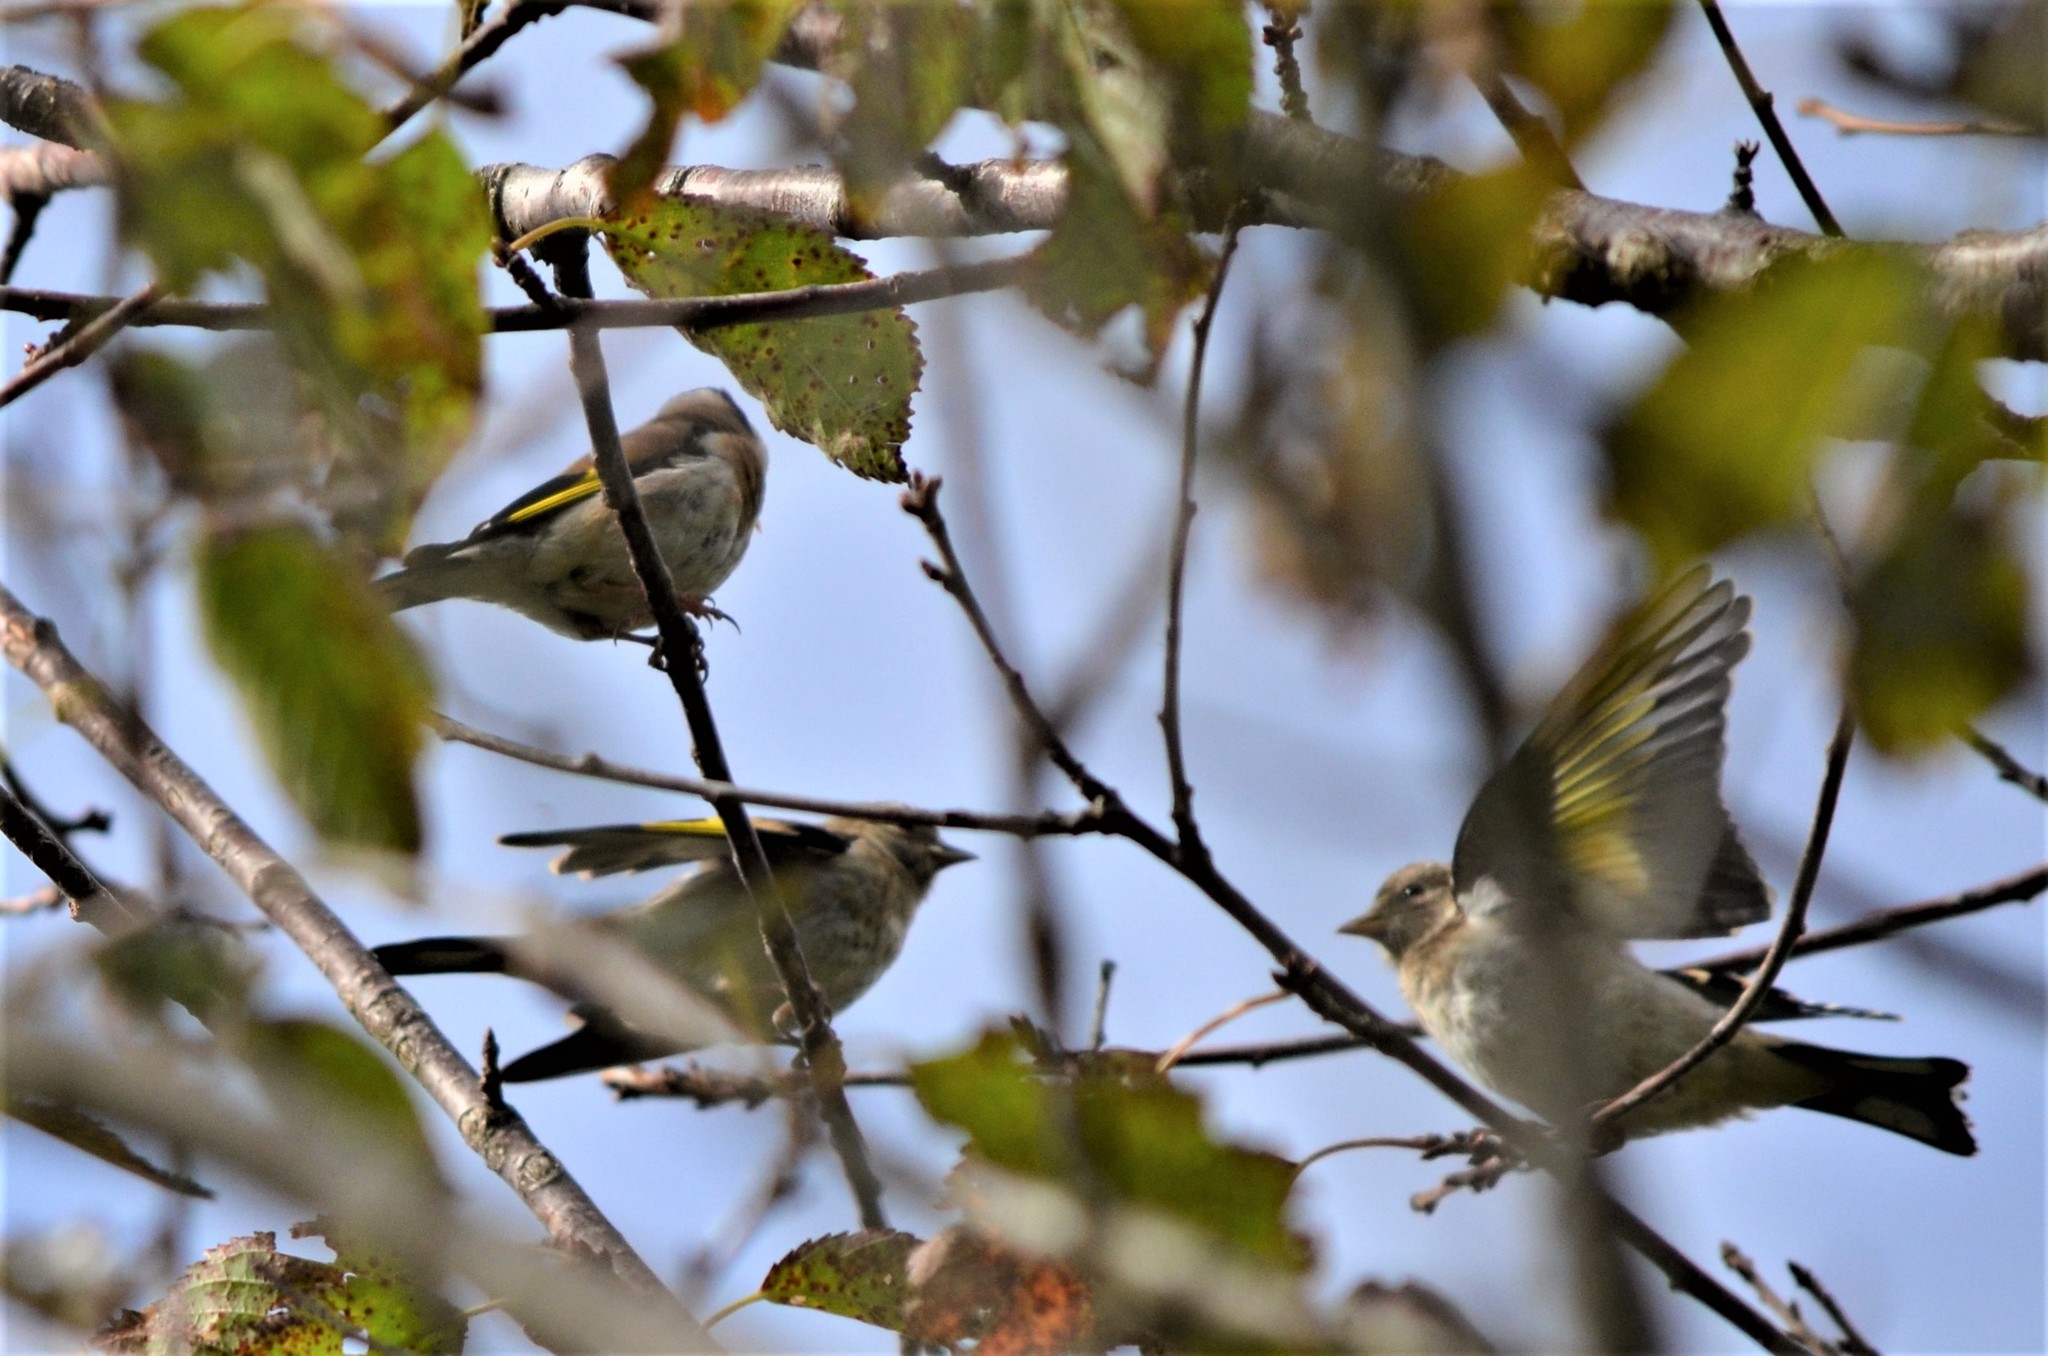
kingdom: Animalia
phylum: Chordata
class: Aves
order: Passeriformes
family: Fringillidae
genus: Carduelis
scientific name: Carduelis carduelis
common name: European goldfinch
